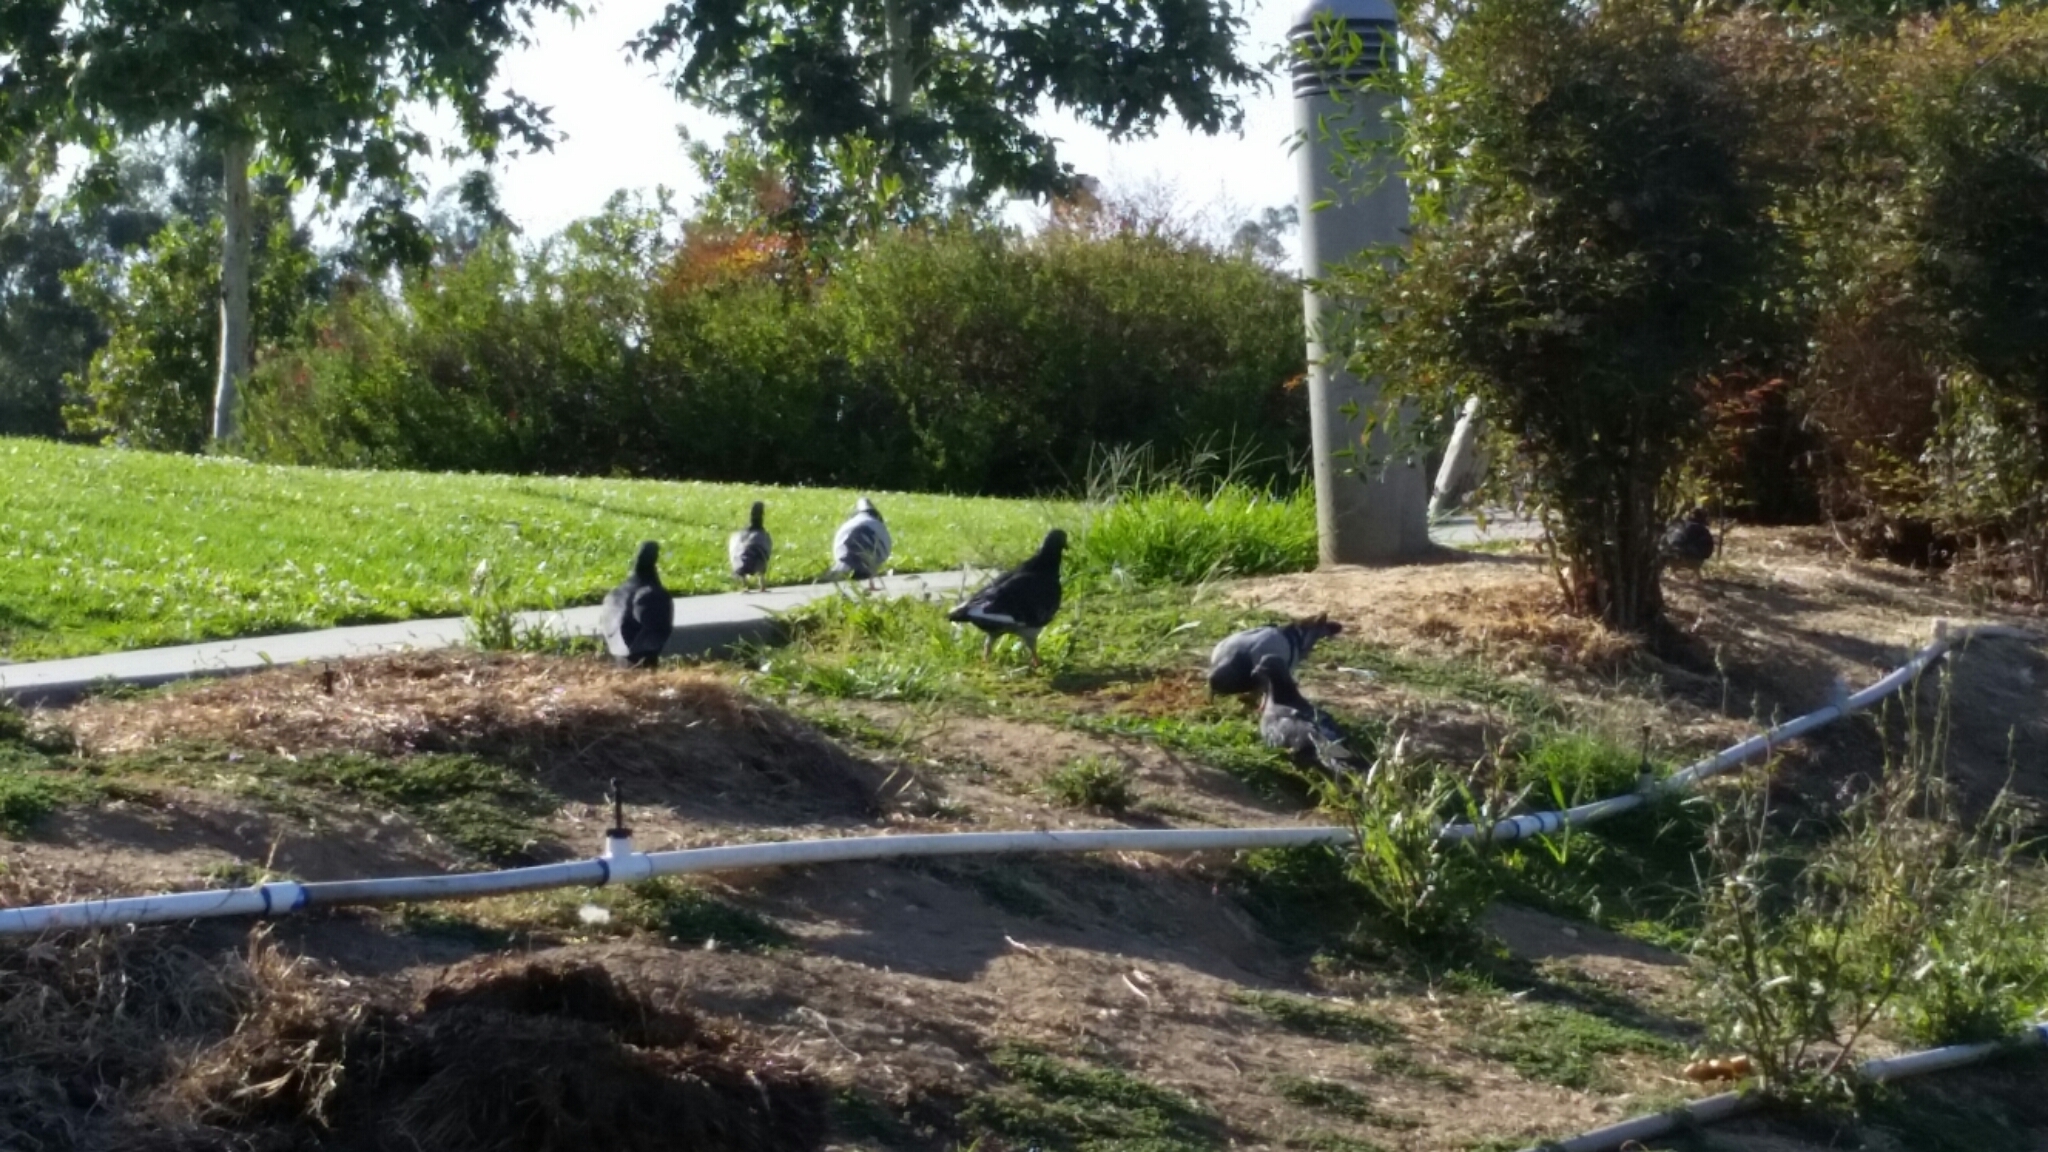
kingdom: Animalia
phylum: Chordata
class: Aves
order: Columbiformes
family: Columbidae
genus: Columba
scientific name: Columba livia
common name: Rock pigeon
